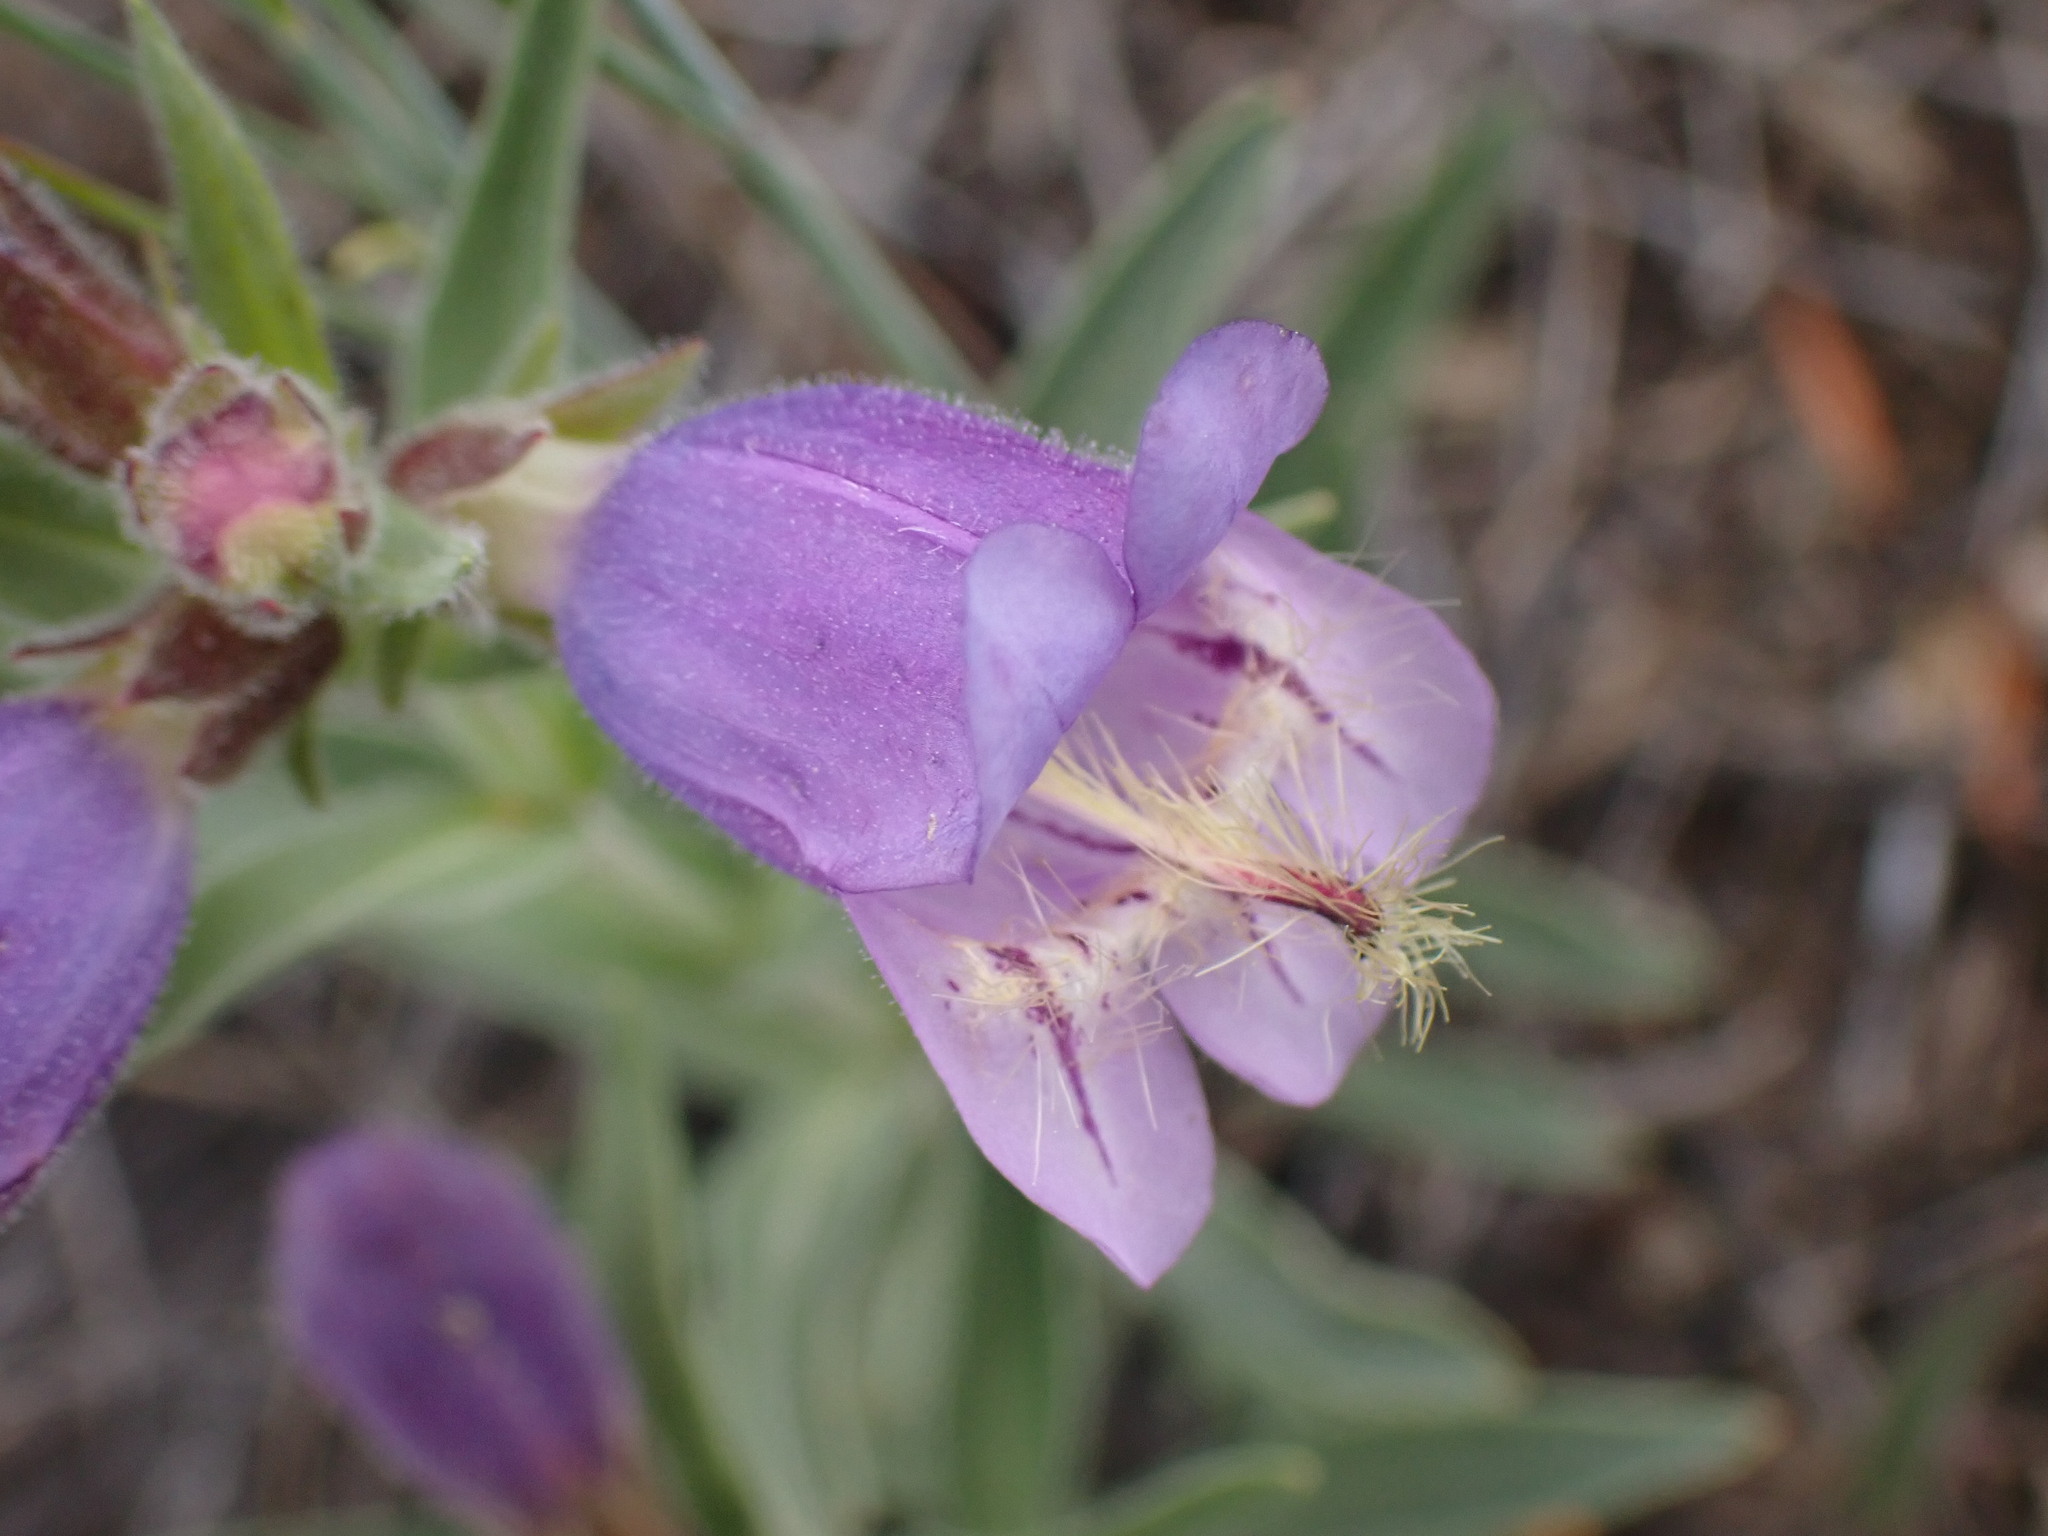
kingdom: Plantae
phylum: Tracheophyta
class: Magnoliopsida
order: Lamiales
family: Plantaginaceae
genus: Penstemon
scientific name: Penstemon eriantherus
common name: Crested beardtongue
